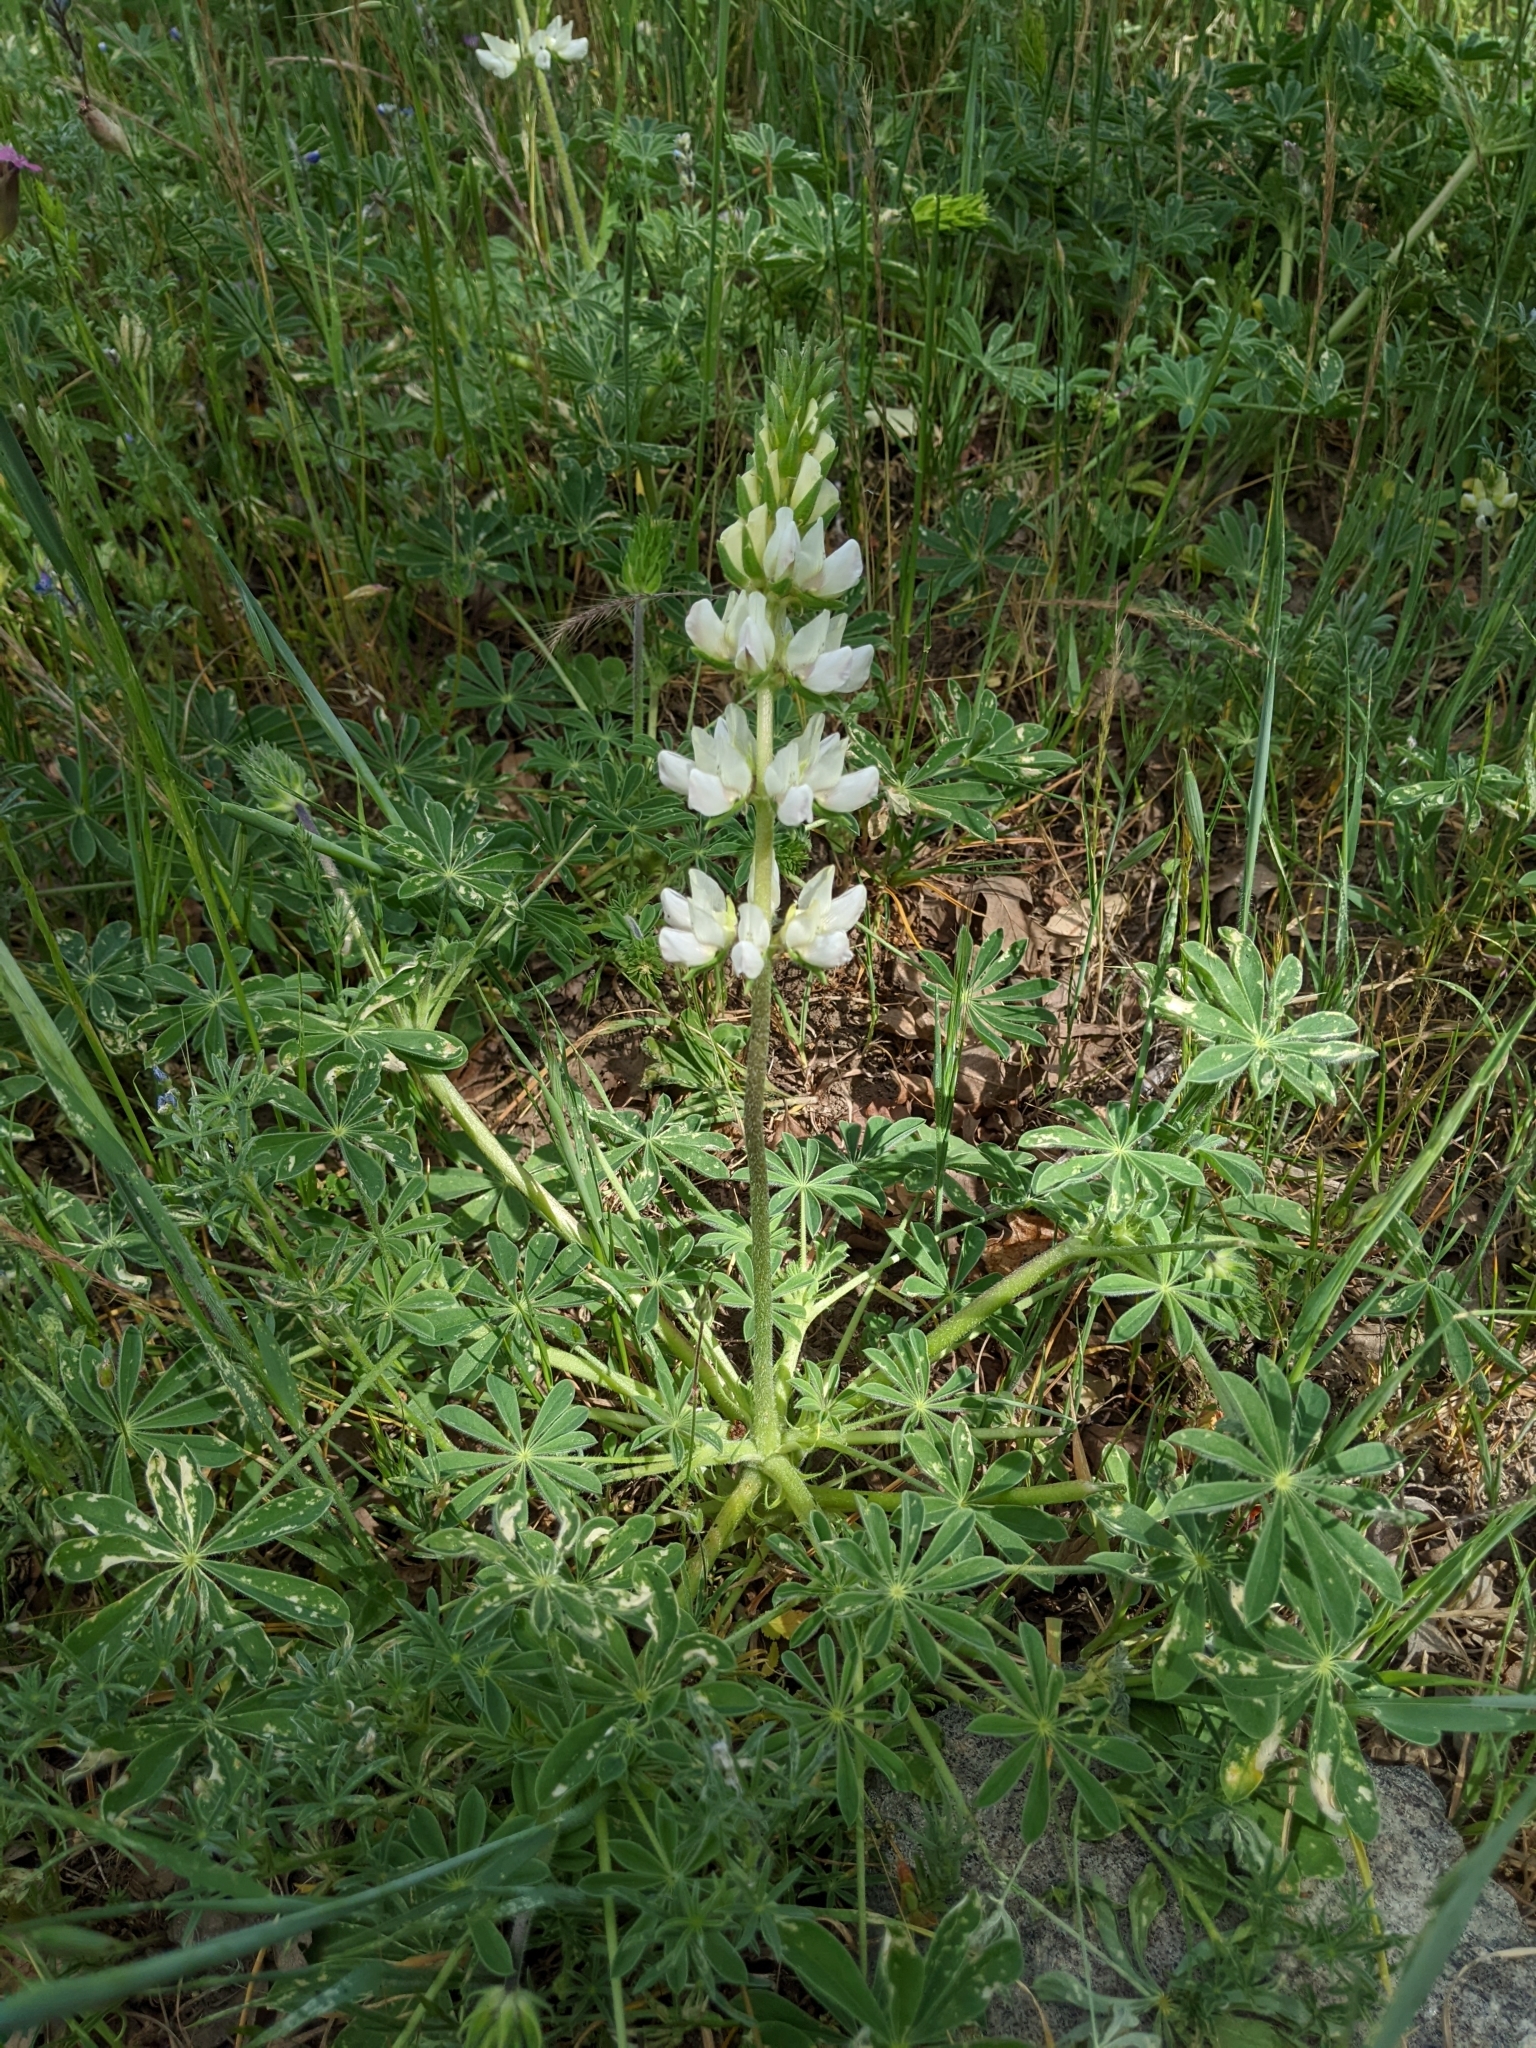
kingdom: Plantae
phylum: Tracheophyta
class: Magnoliopsida
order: Fabales
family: Fabaceae
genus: Lupinus
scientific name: Lupinus microcarpus
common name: Chick lupine
